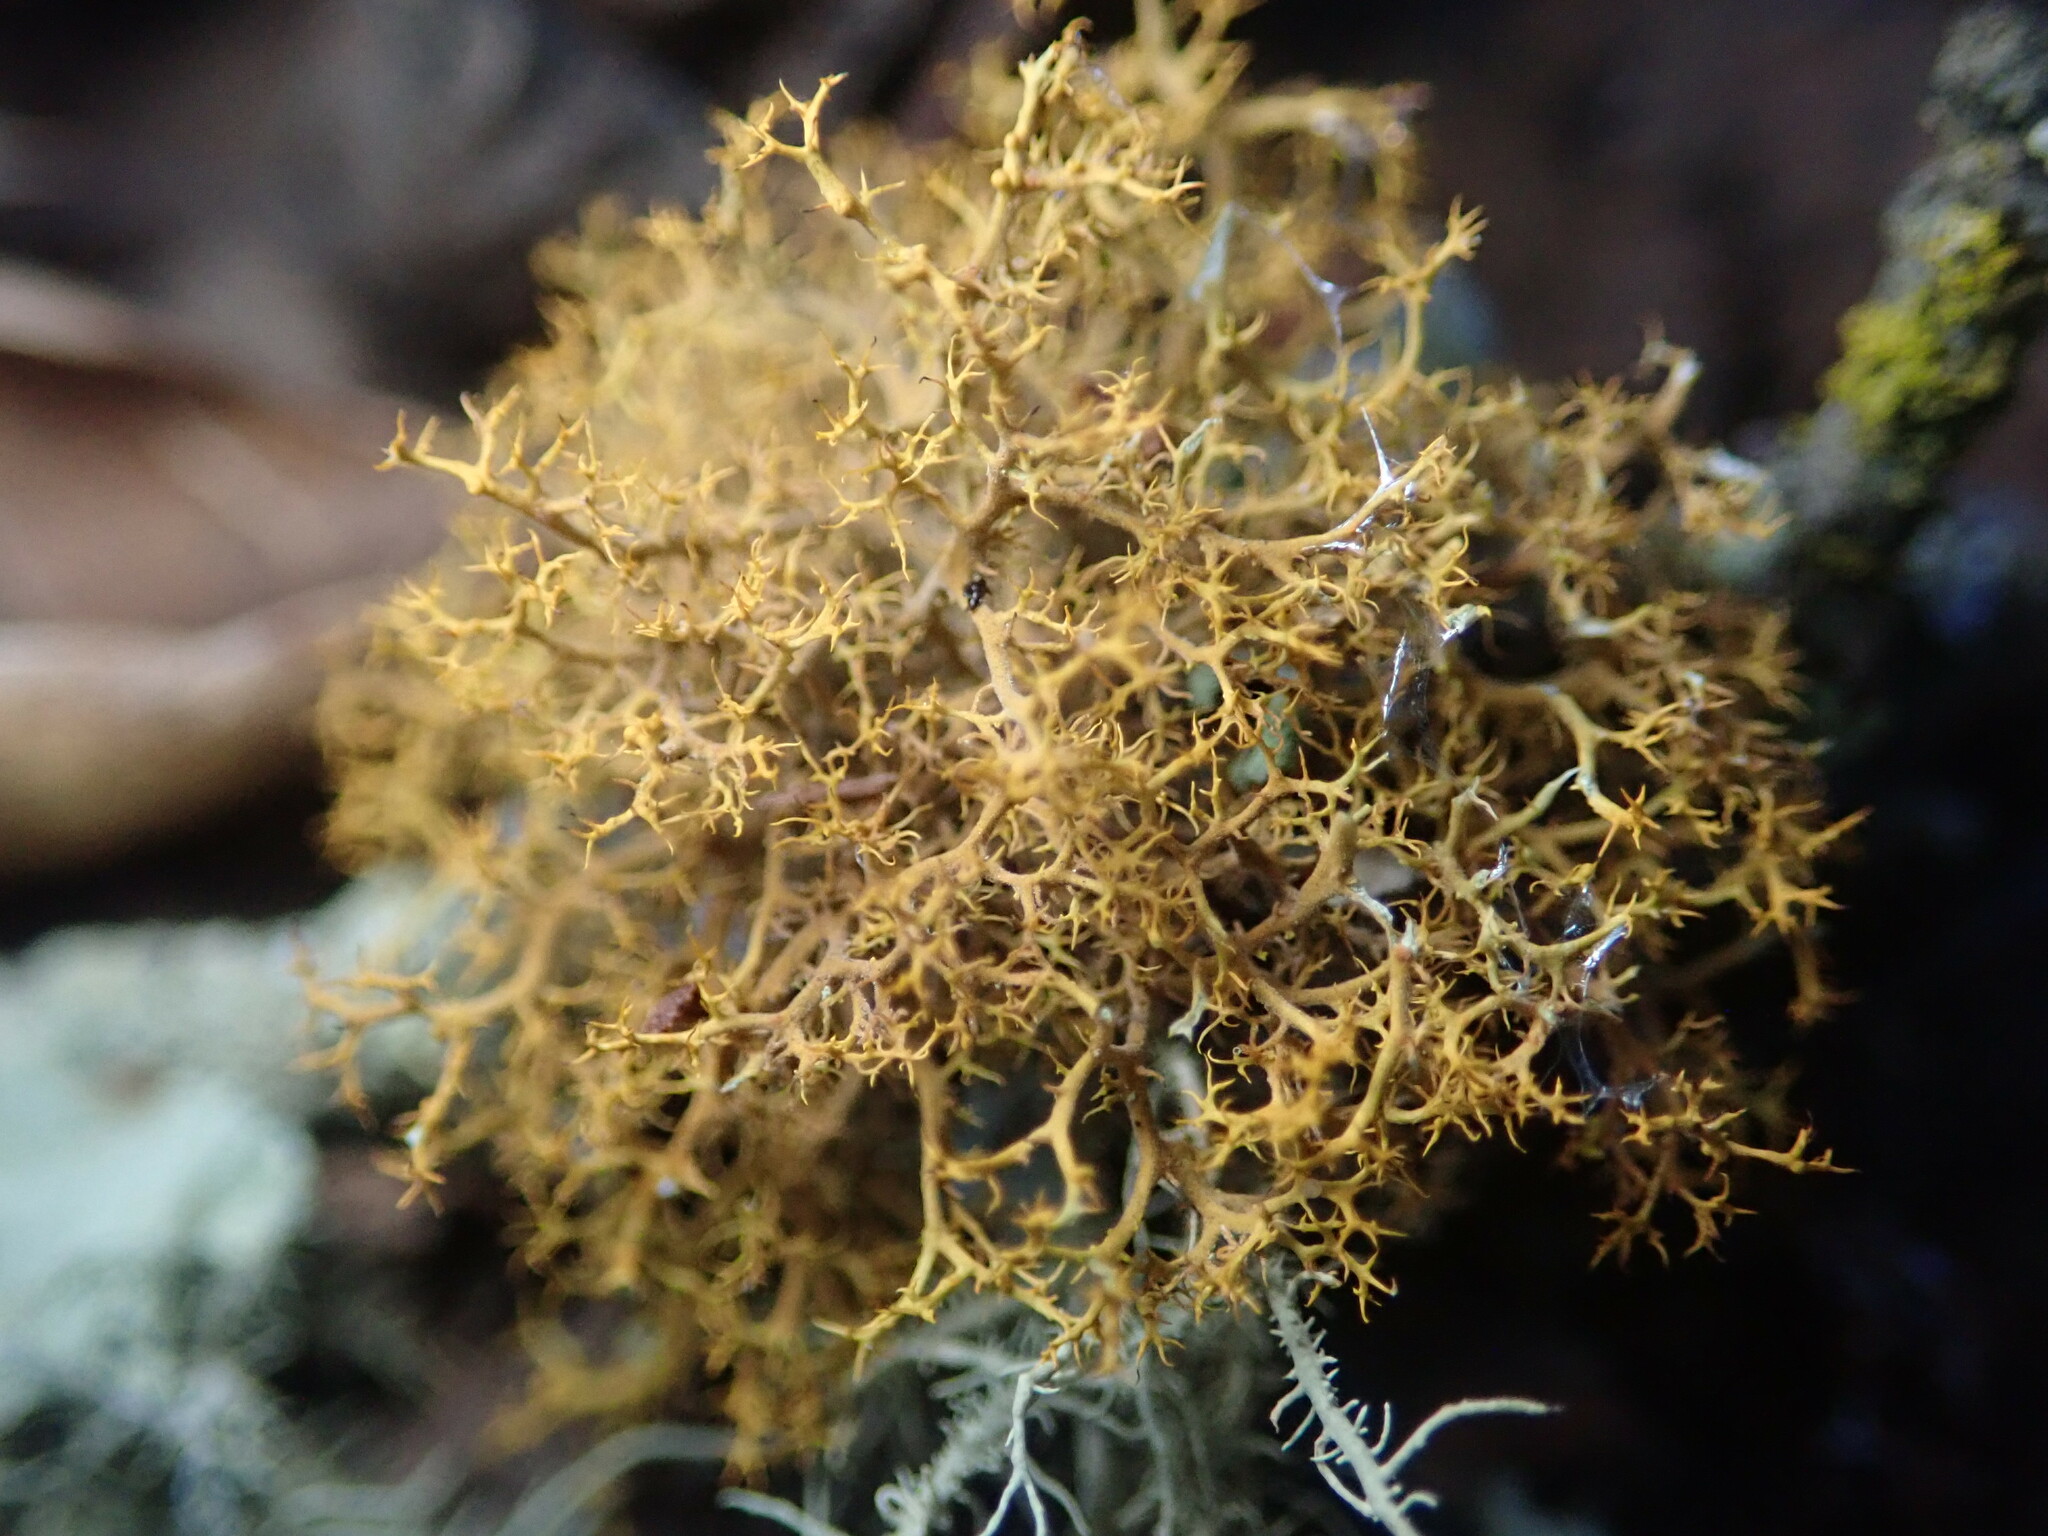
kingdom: Fungi
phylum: Ascomycota
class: Lecanoromycetes
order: Teloschistales
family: Teloschistaceae
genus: Teloschistes
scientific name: Teloschistes flavicans
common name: Golden hair-lichen
